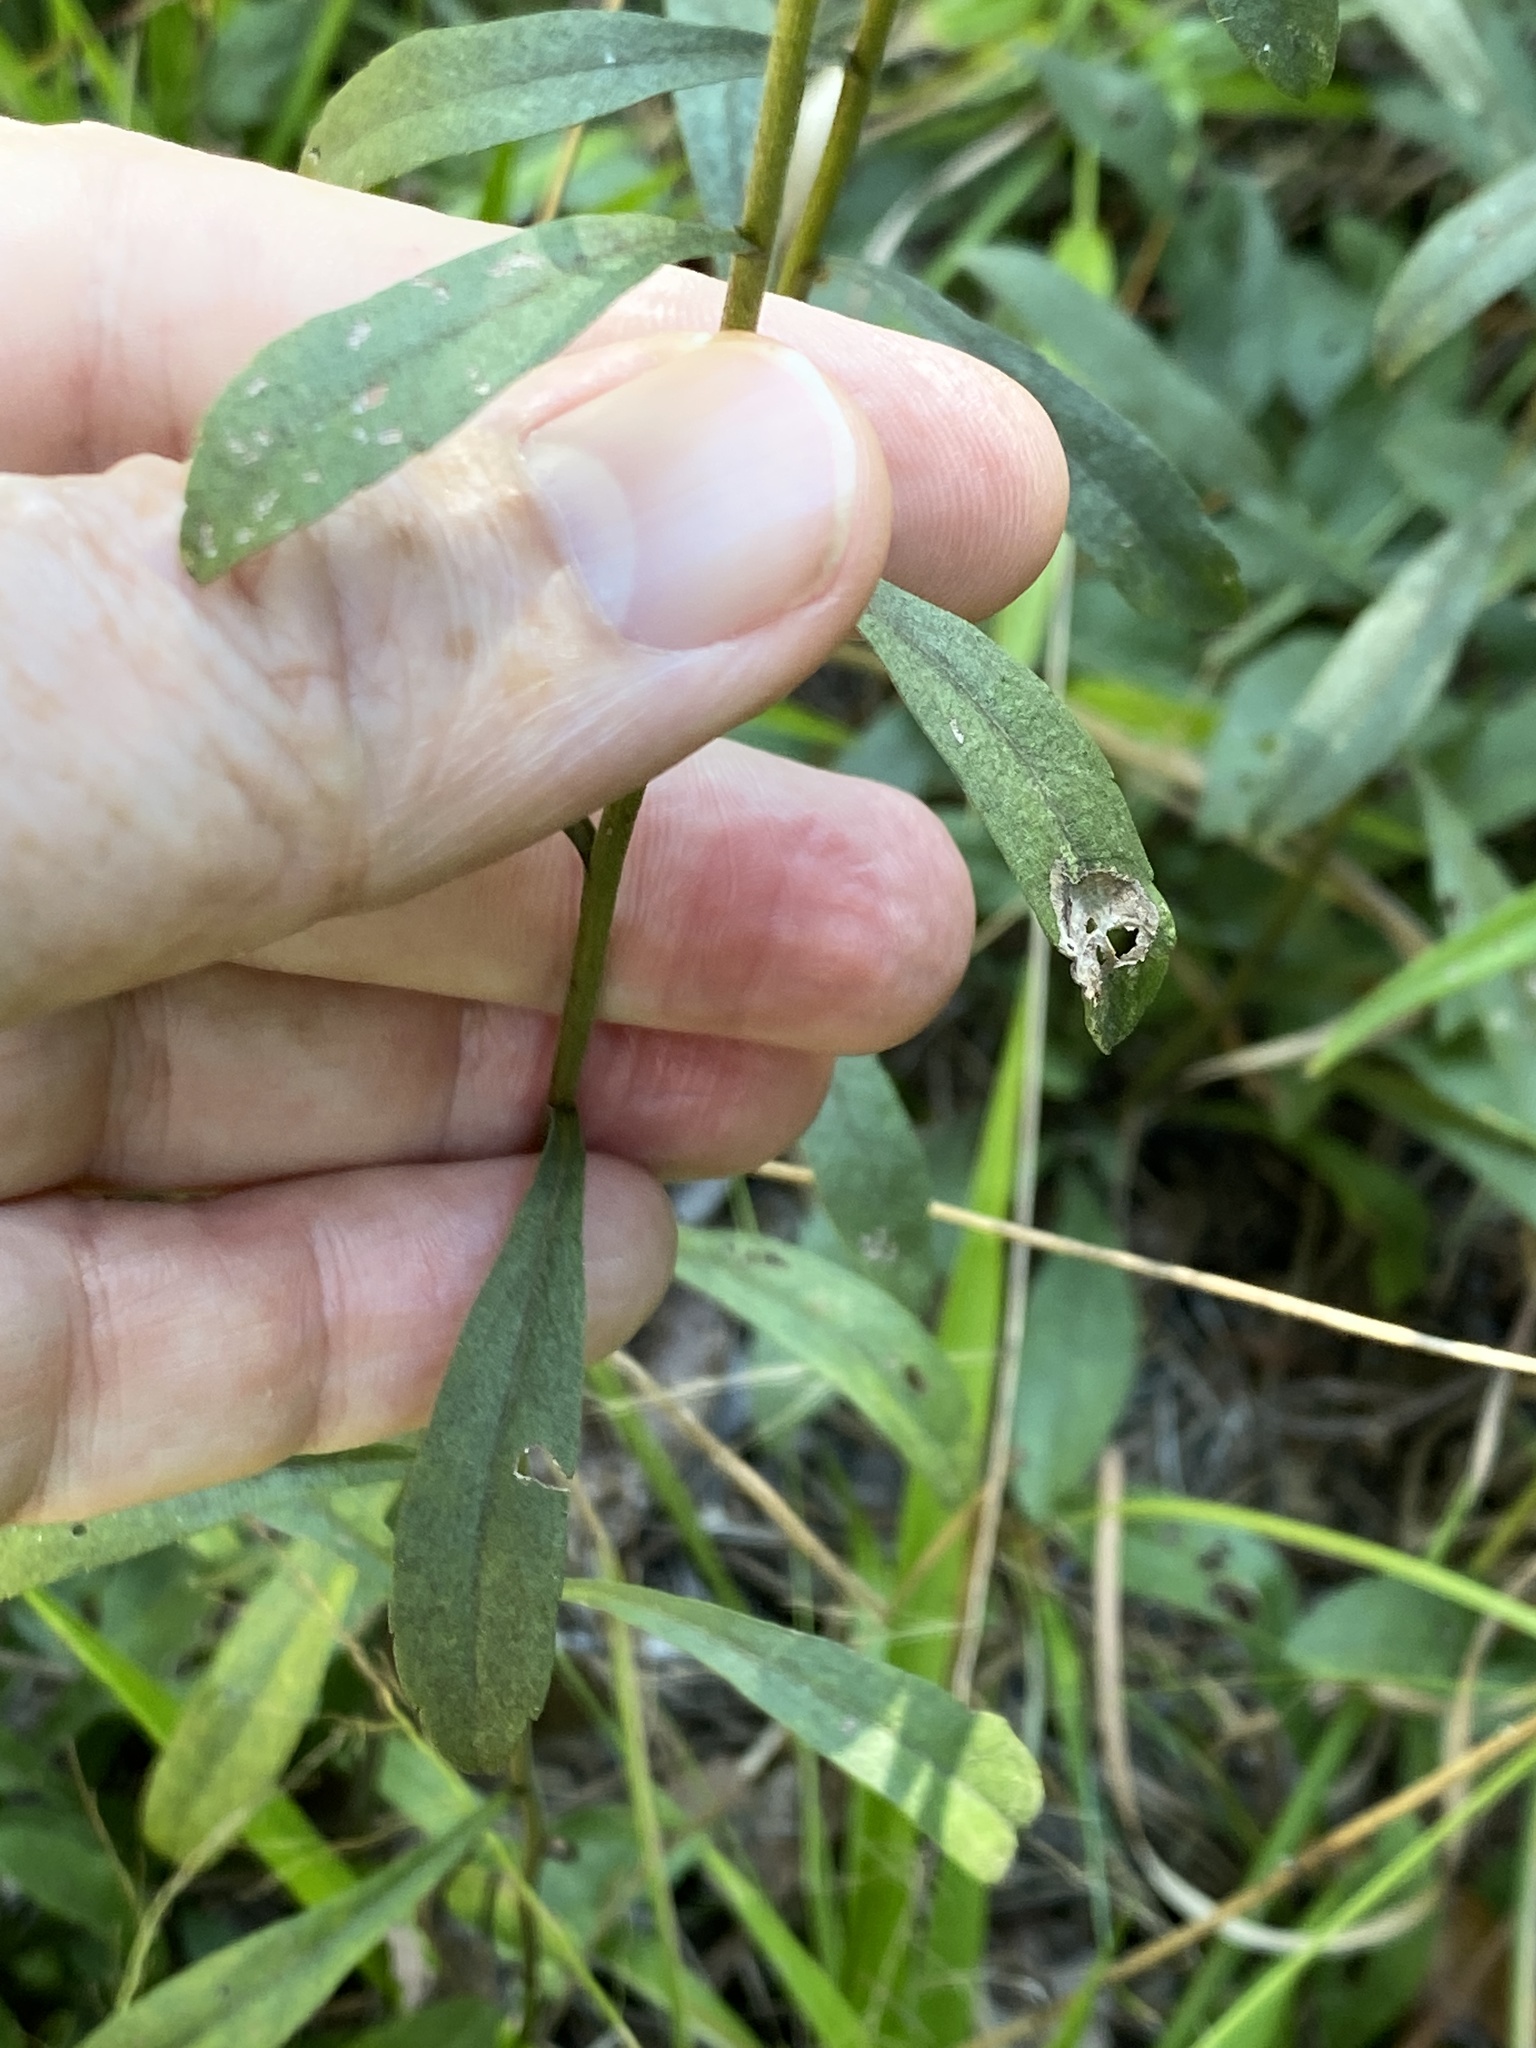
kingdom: Plantae
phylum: Tracheophyta
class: Magnoliopsida
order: Asterales
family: Asteraceae
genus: Solidago
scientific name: Solidago nemoralis
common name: Grey goldenrod
